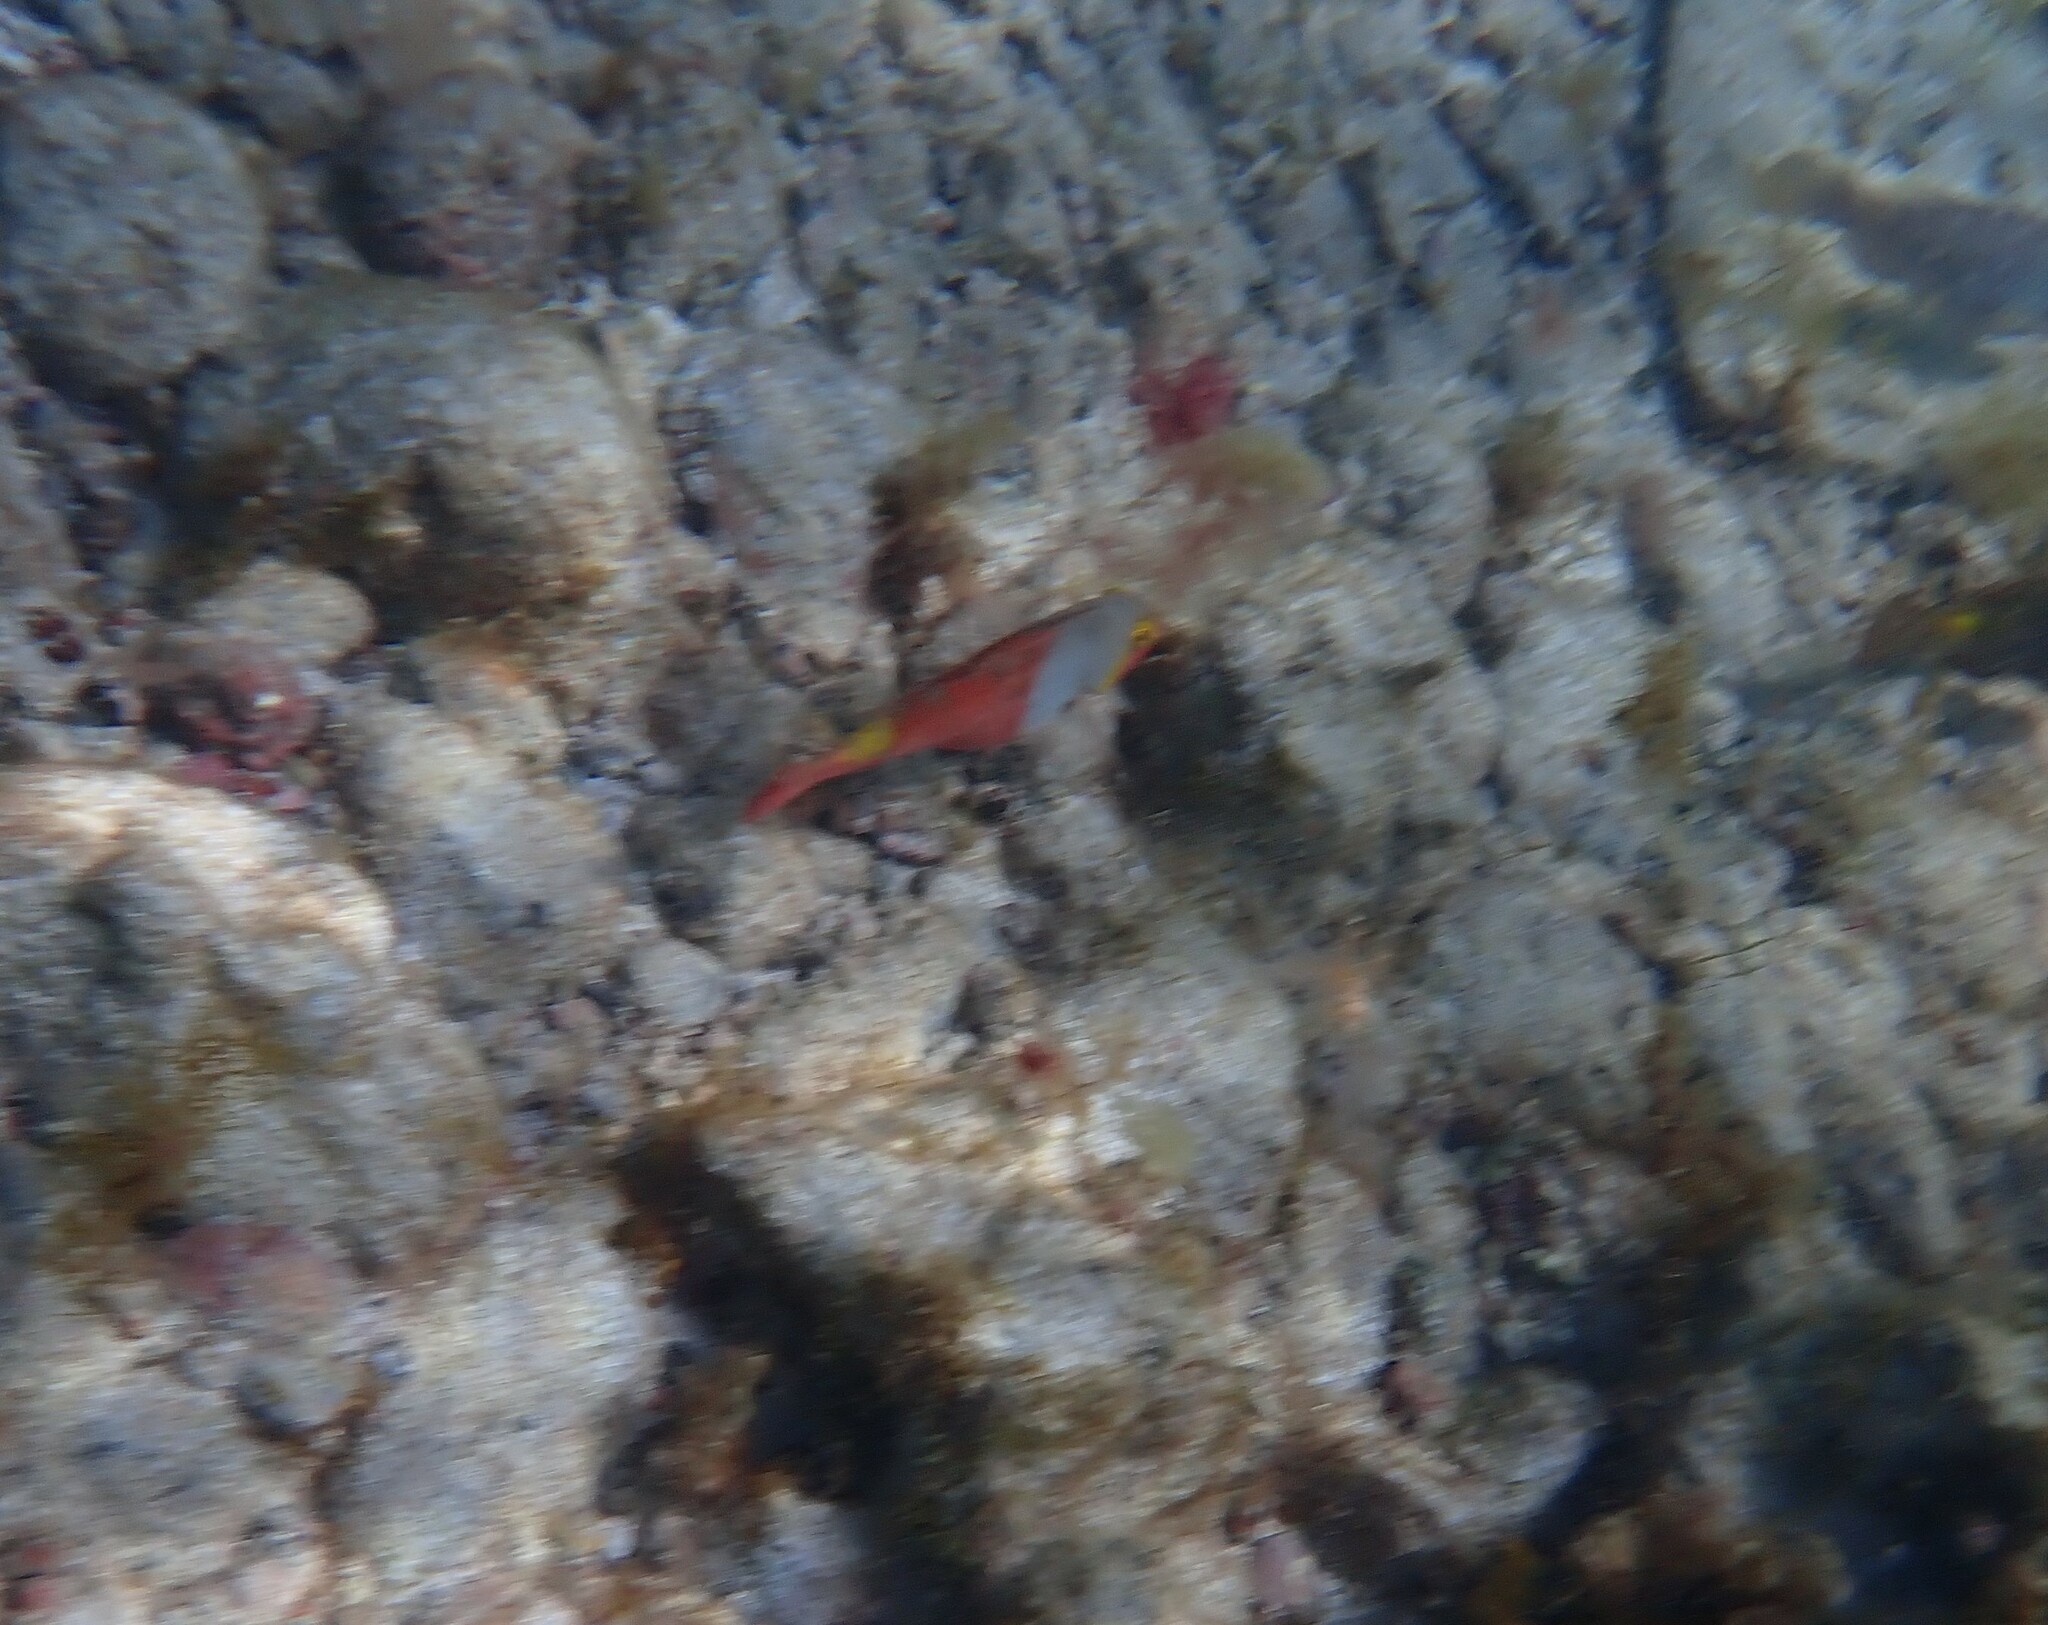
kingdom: Animalia
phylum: Chordata
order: Perciformes
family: Scaridae
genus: Sparisoma
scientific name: Sparisoma cretense
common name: Parrotfish
